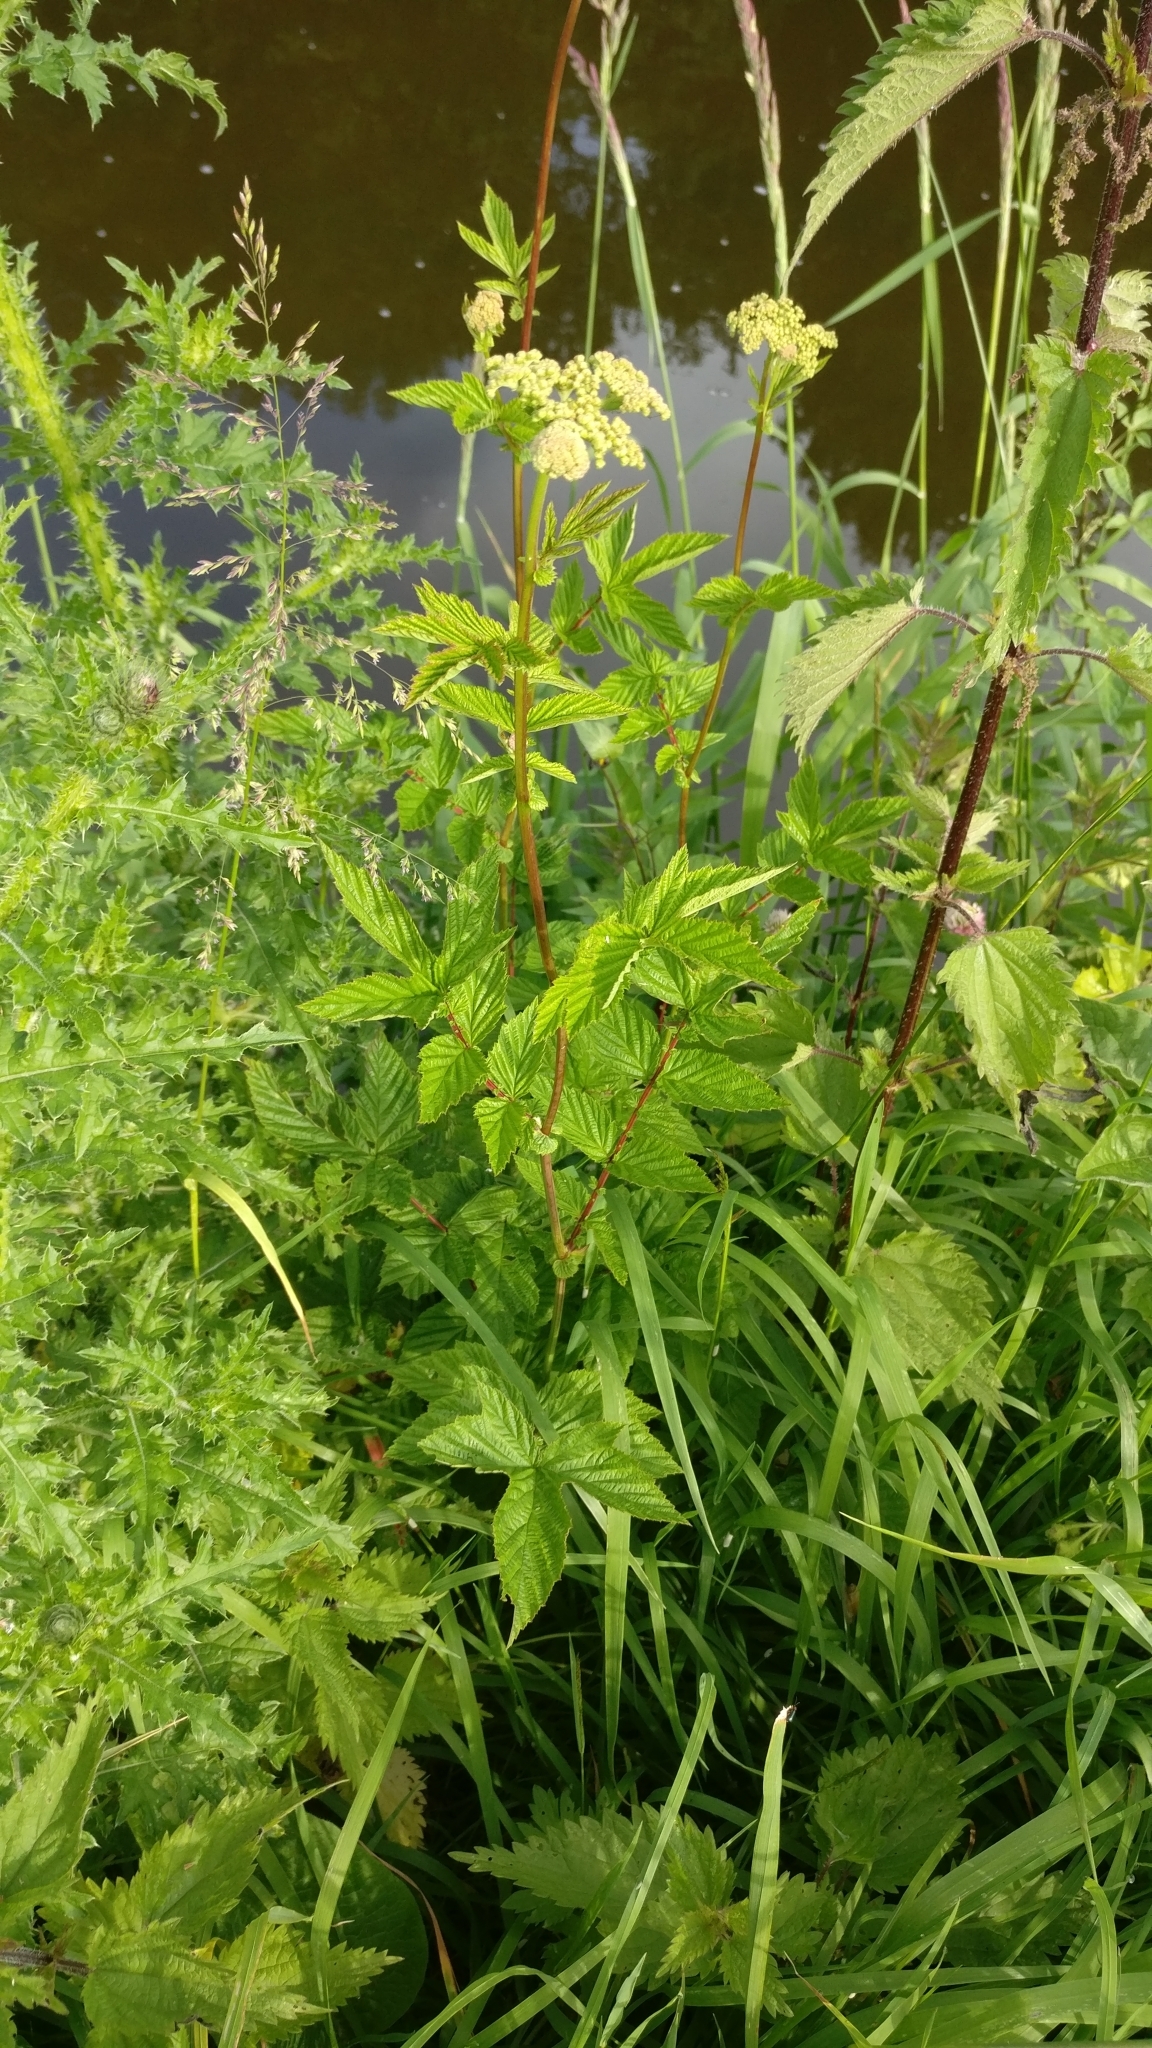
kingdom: Plantae
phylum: Tracheophyta
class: Magnoliopsida
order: Rosales
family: Rosaceae
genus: Filipendula
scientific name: Filipendula ulmaria
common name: Meadowsweet
